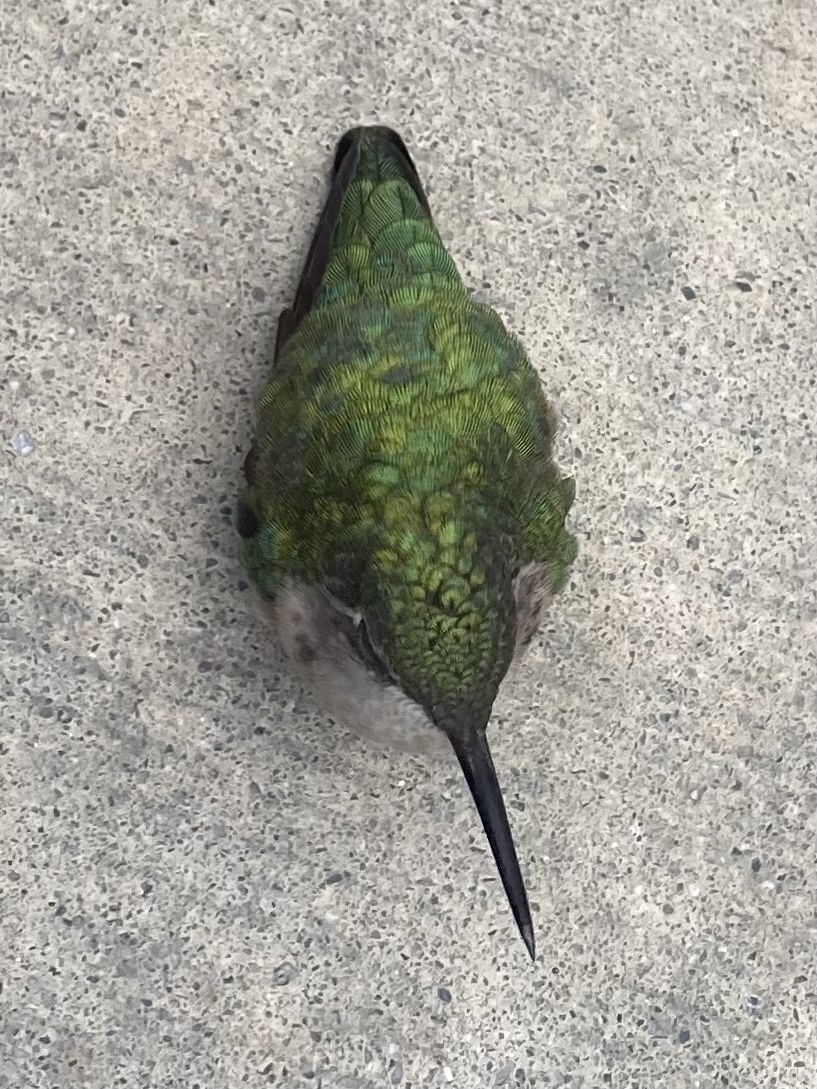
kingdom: Animalia
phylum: Chordata
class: Aves
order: Apodiformes
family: Trochilidae
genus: Archilochus
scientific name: Archilochus colubris
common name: Ruby-throated hummingbird
